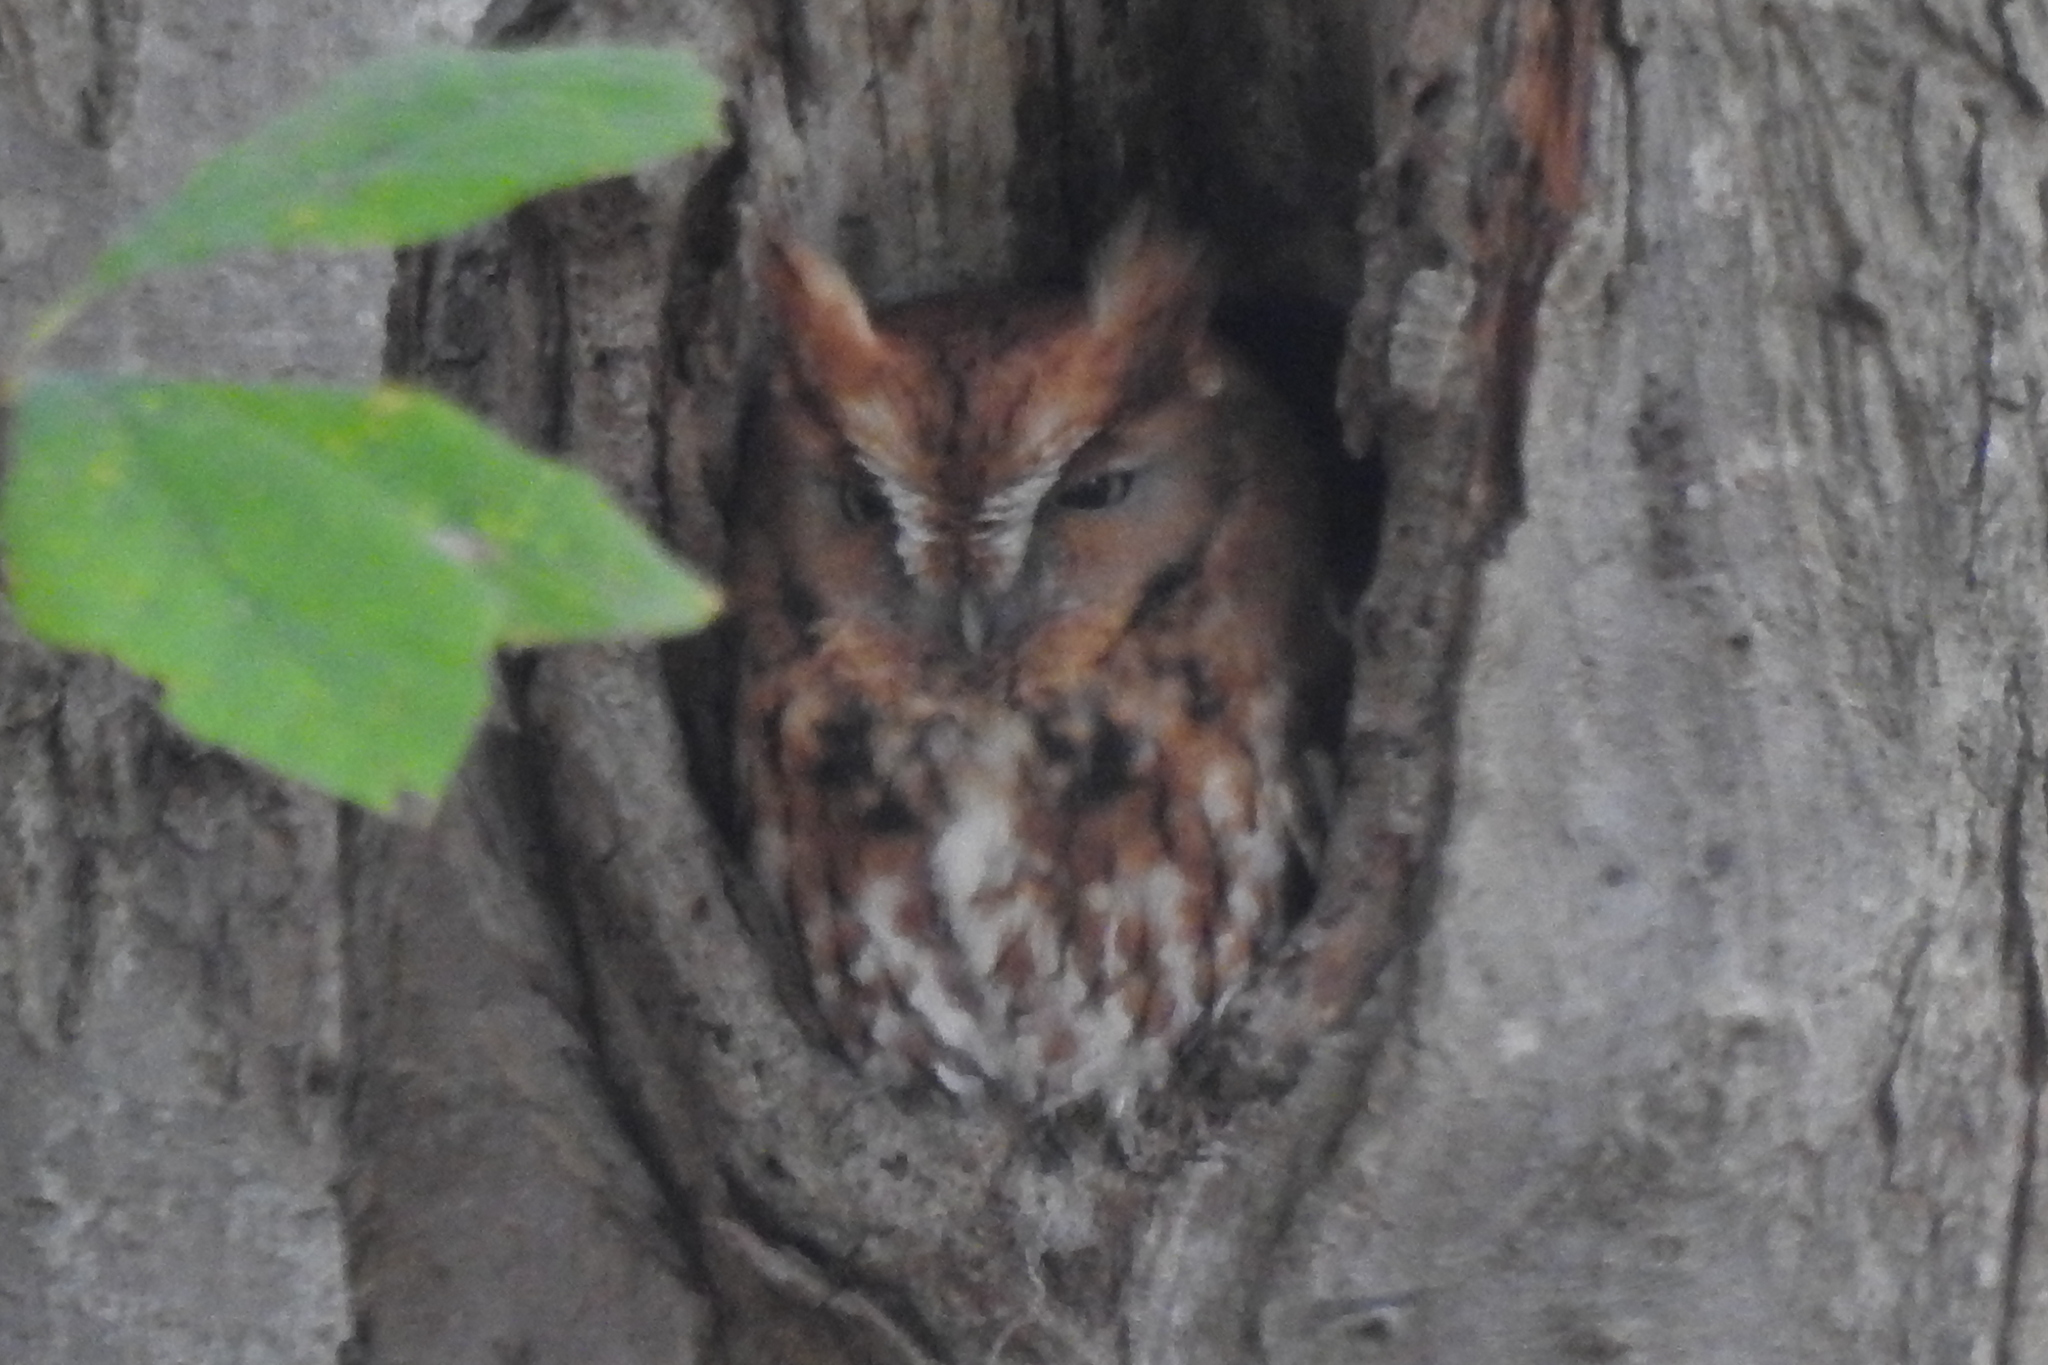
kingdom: Animalia
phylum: Chordata
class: Aves
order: Strigiformes
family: Strigidae
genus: Megascops
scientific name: Megascops asio
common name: Eastern screech-owl
